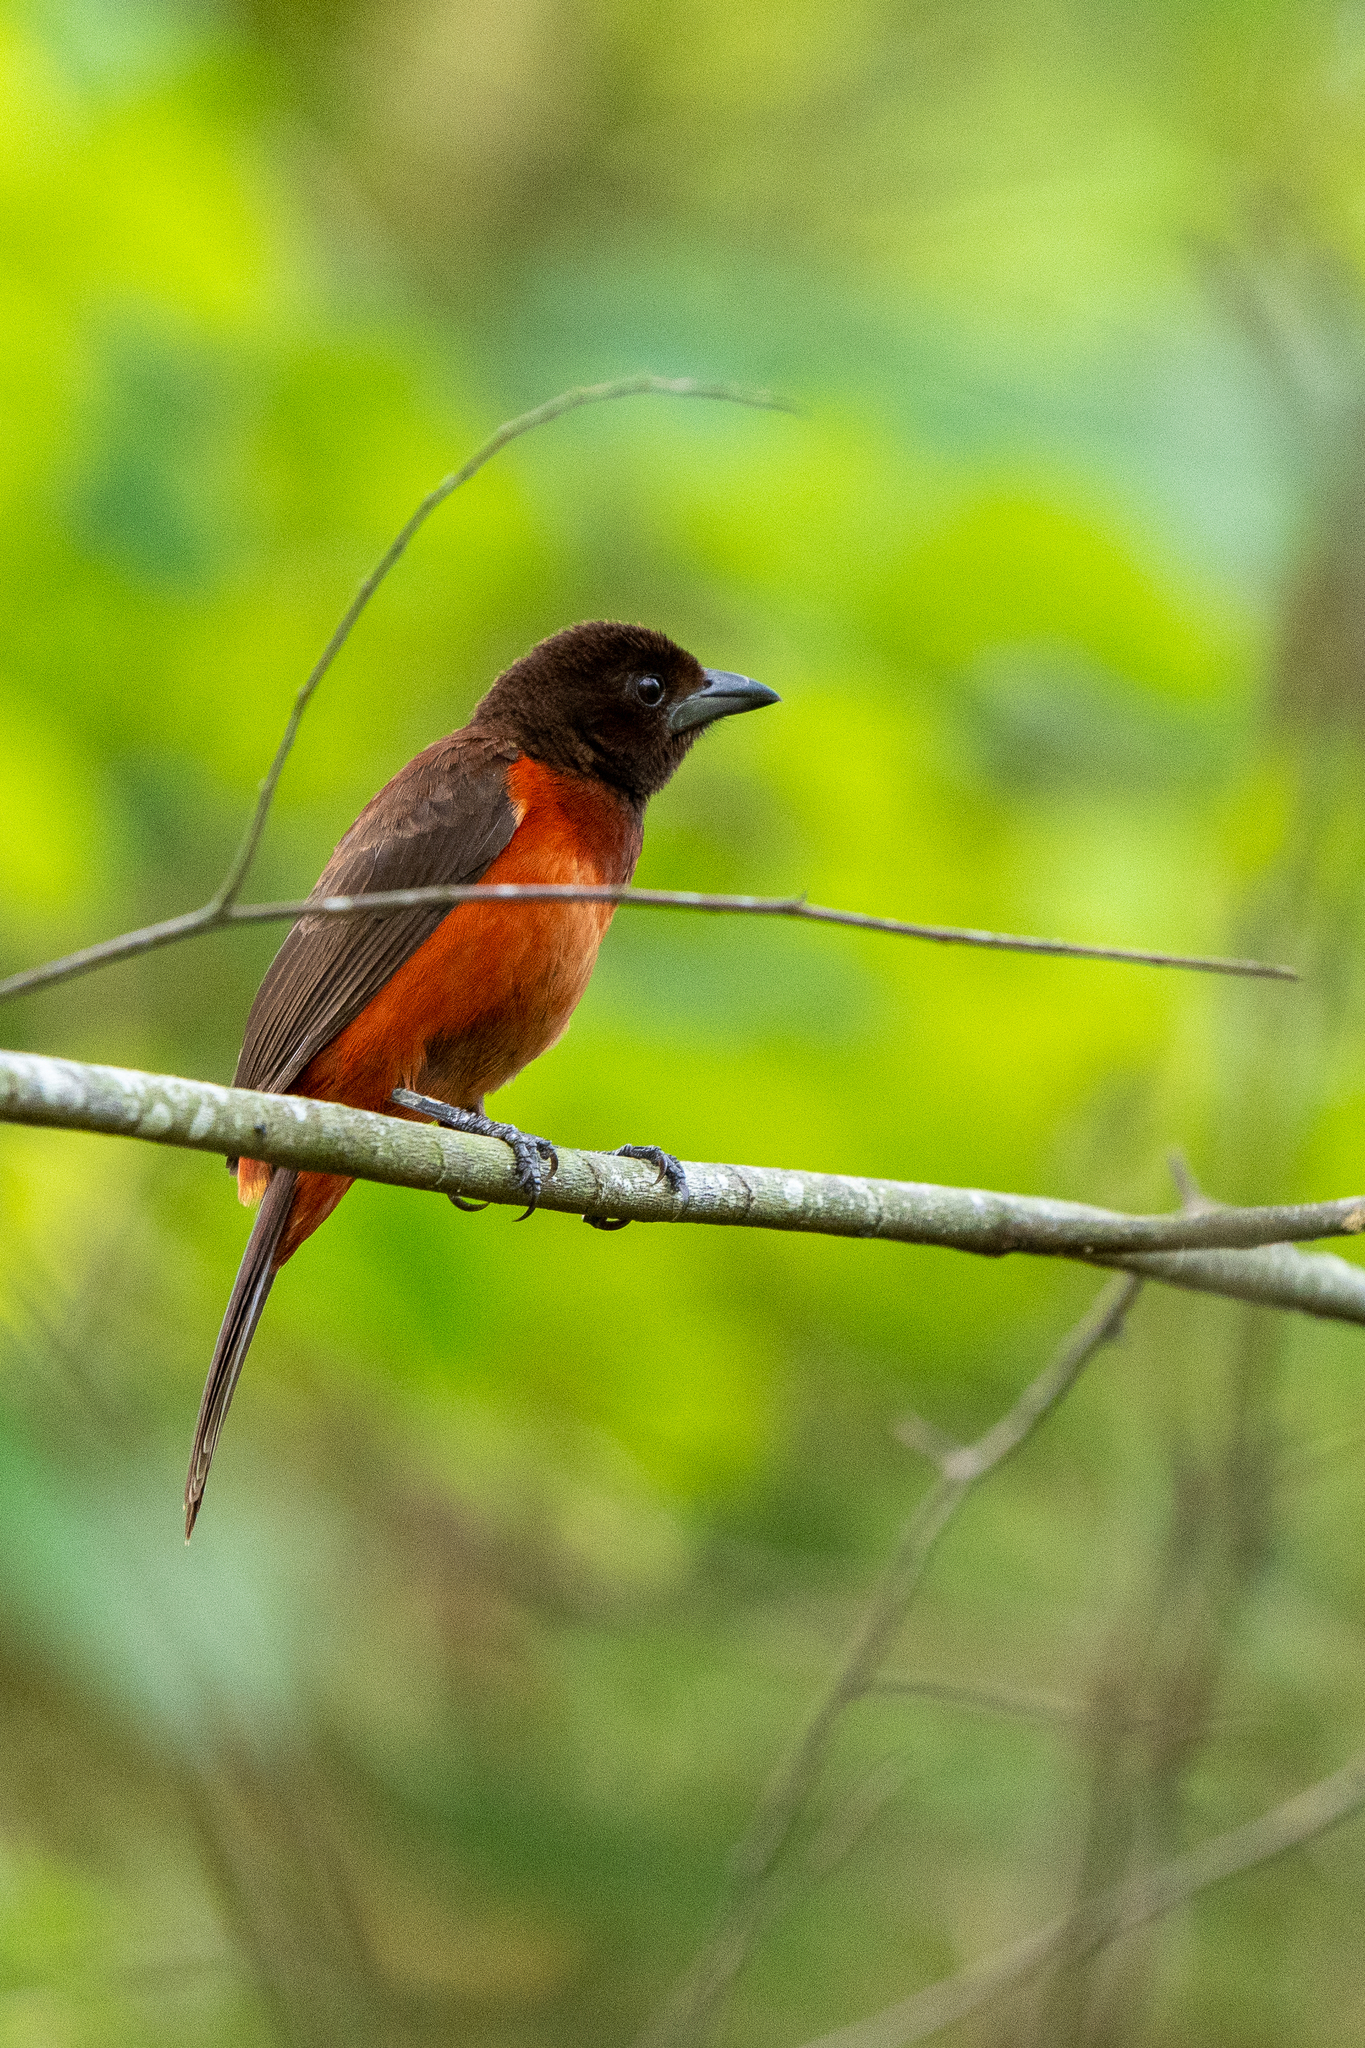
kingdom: Animalia
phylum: Chordata
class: Aves
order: Passeriformes
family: Thraupidae
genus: Ramphocelus
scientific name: Ramphocelus dimidiatus
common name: Crimson-backed tanager
